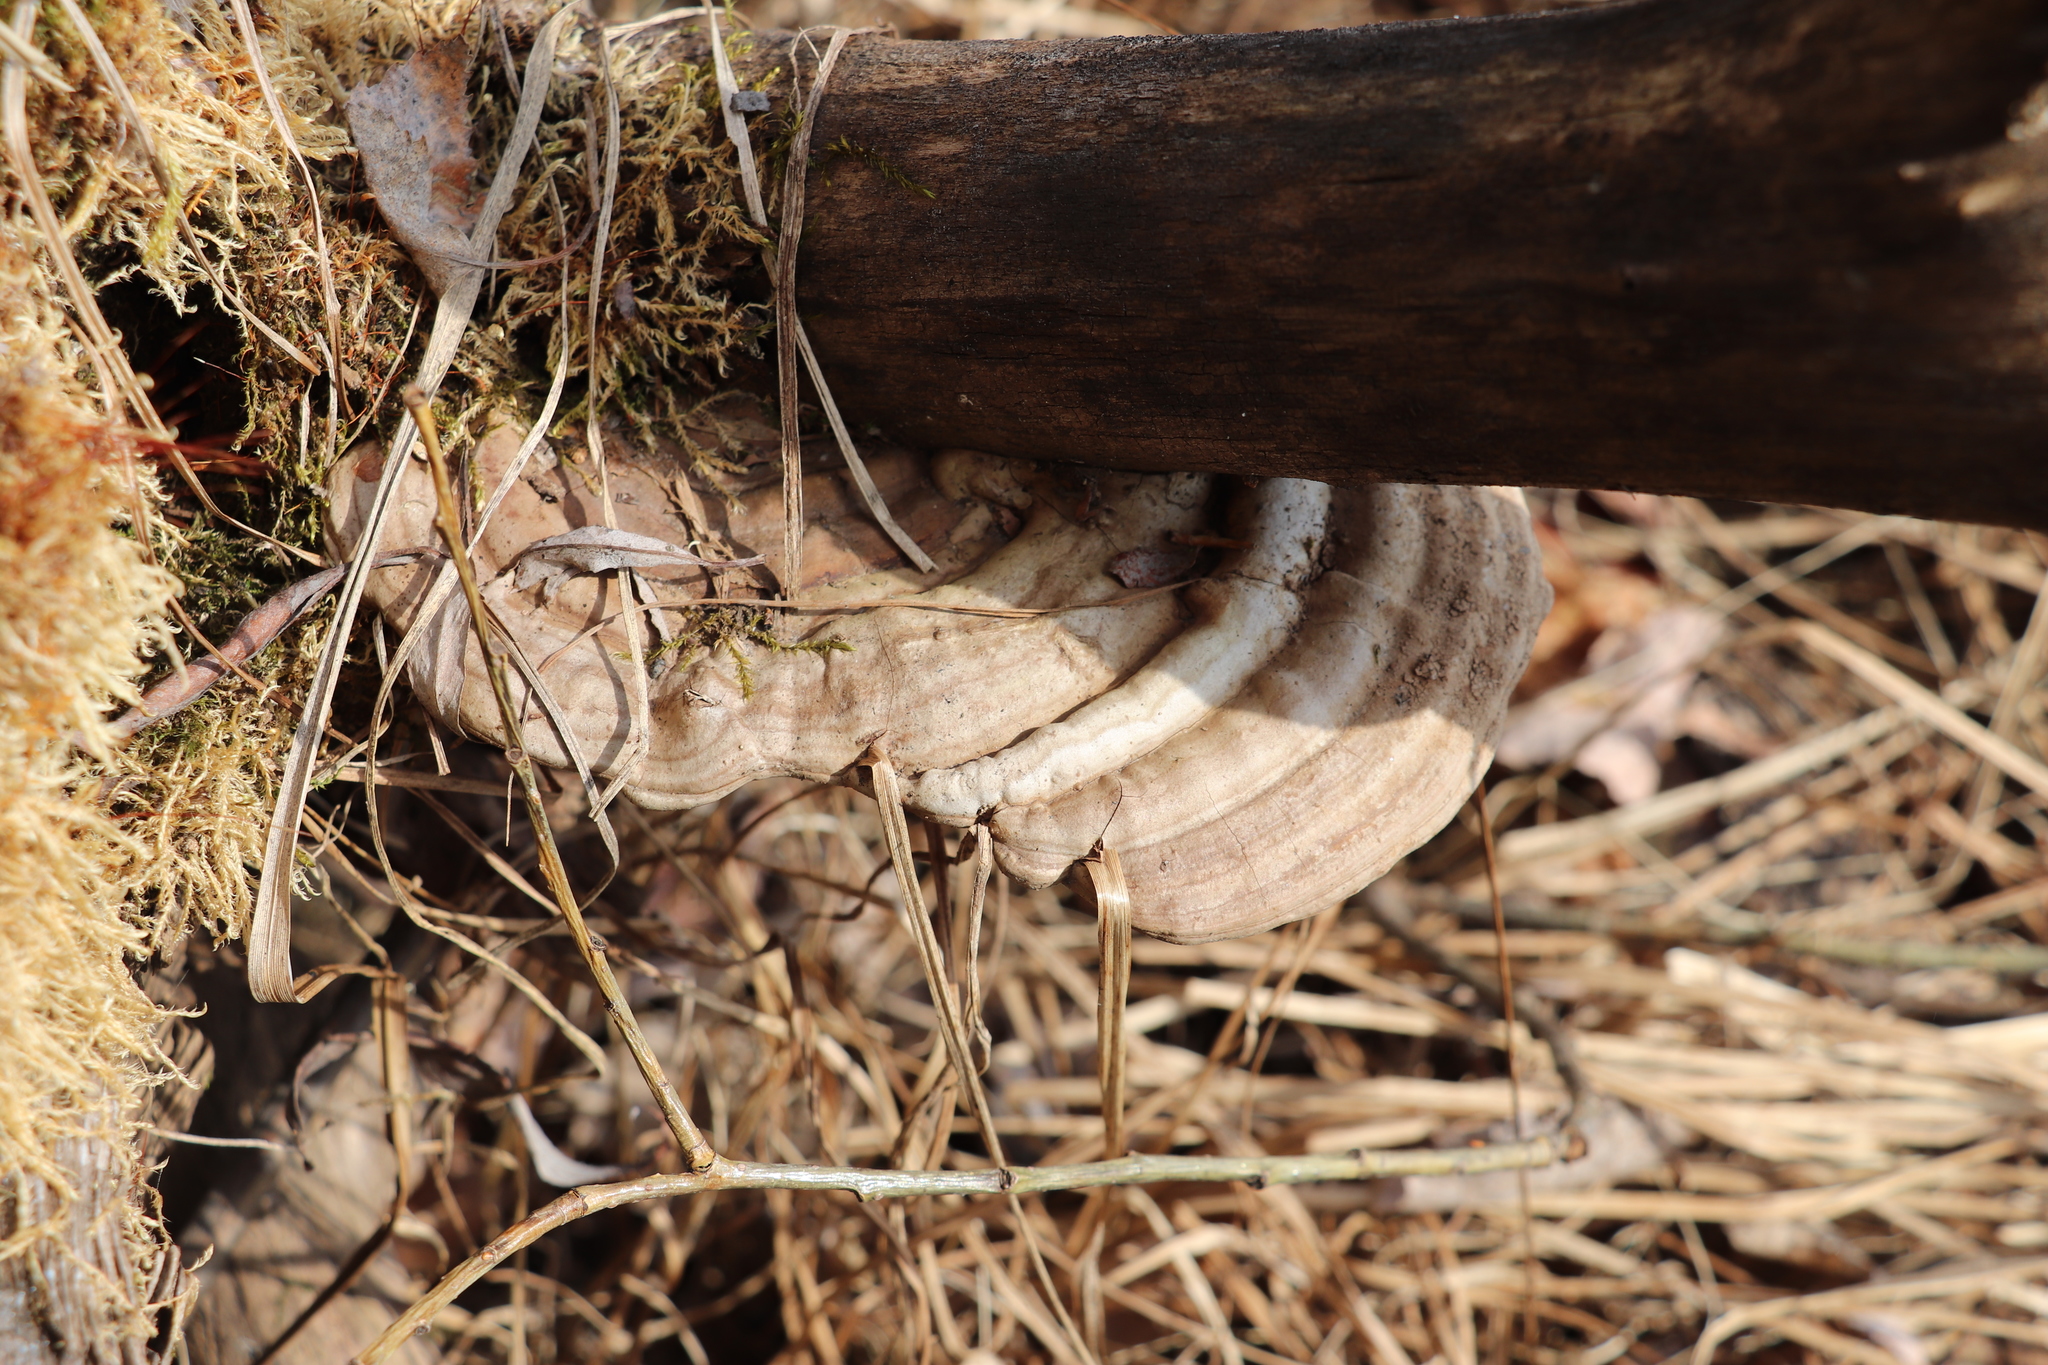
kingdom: Fungi
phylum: Basidiomycota
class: Agaricomycetes
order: Polyporales
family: Polyporaceae
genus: Ganoderma
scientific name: Ganoderma applanatum
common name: Artist's bracket
